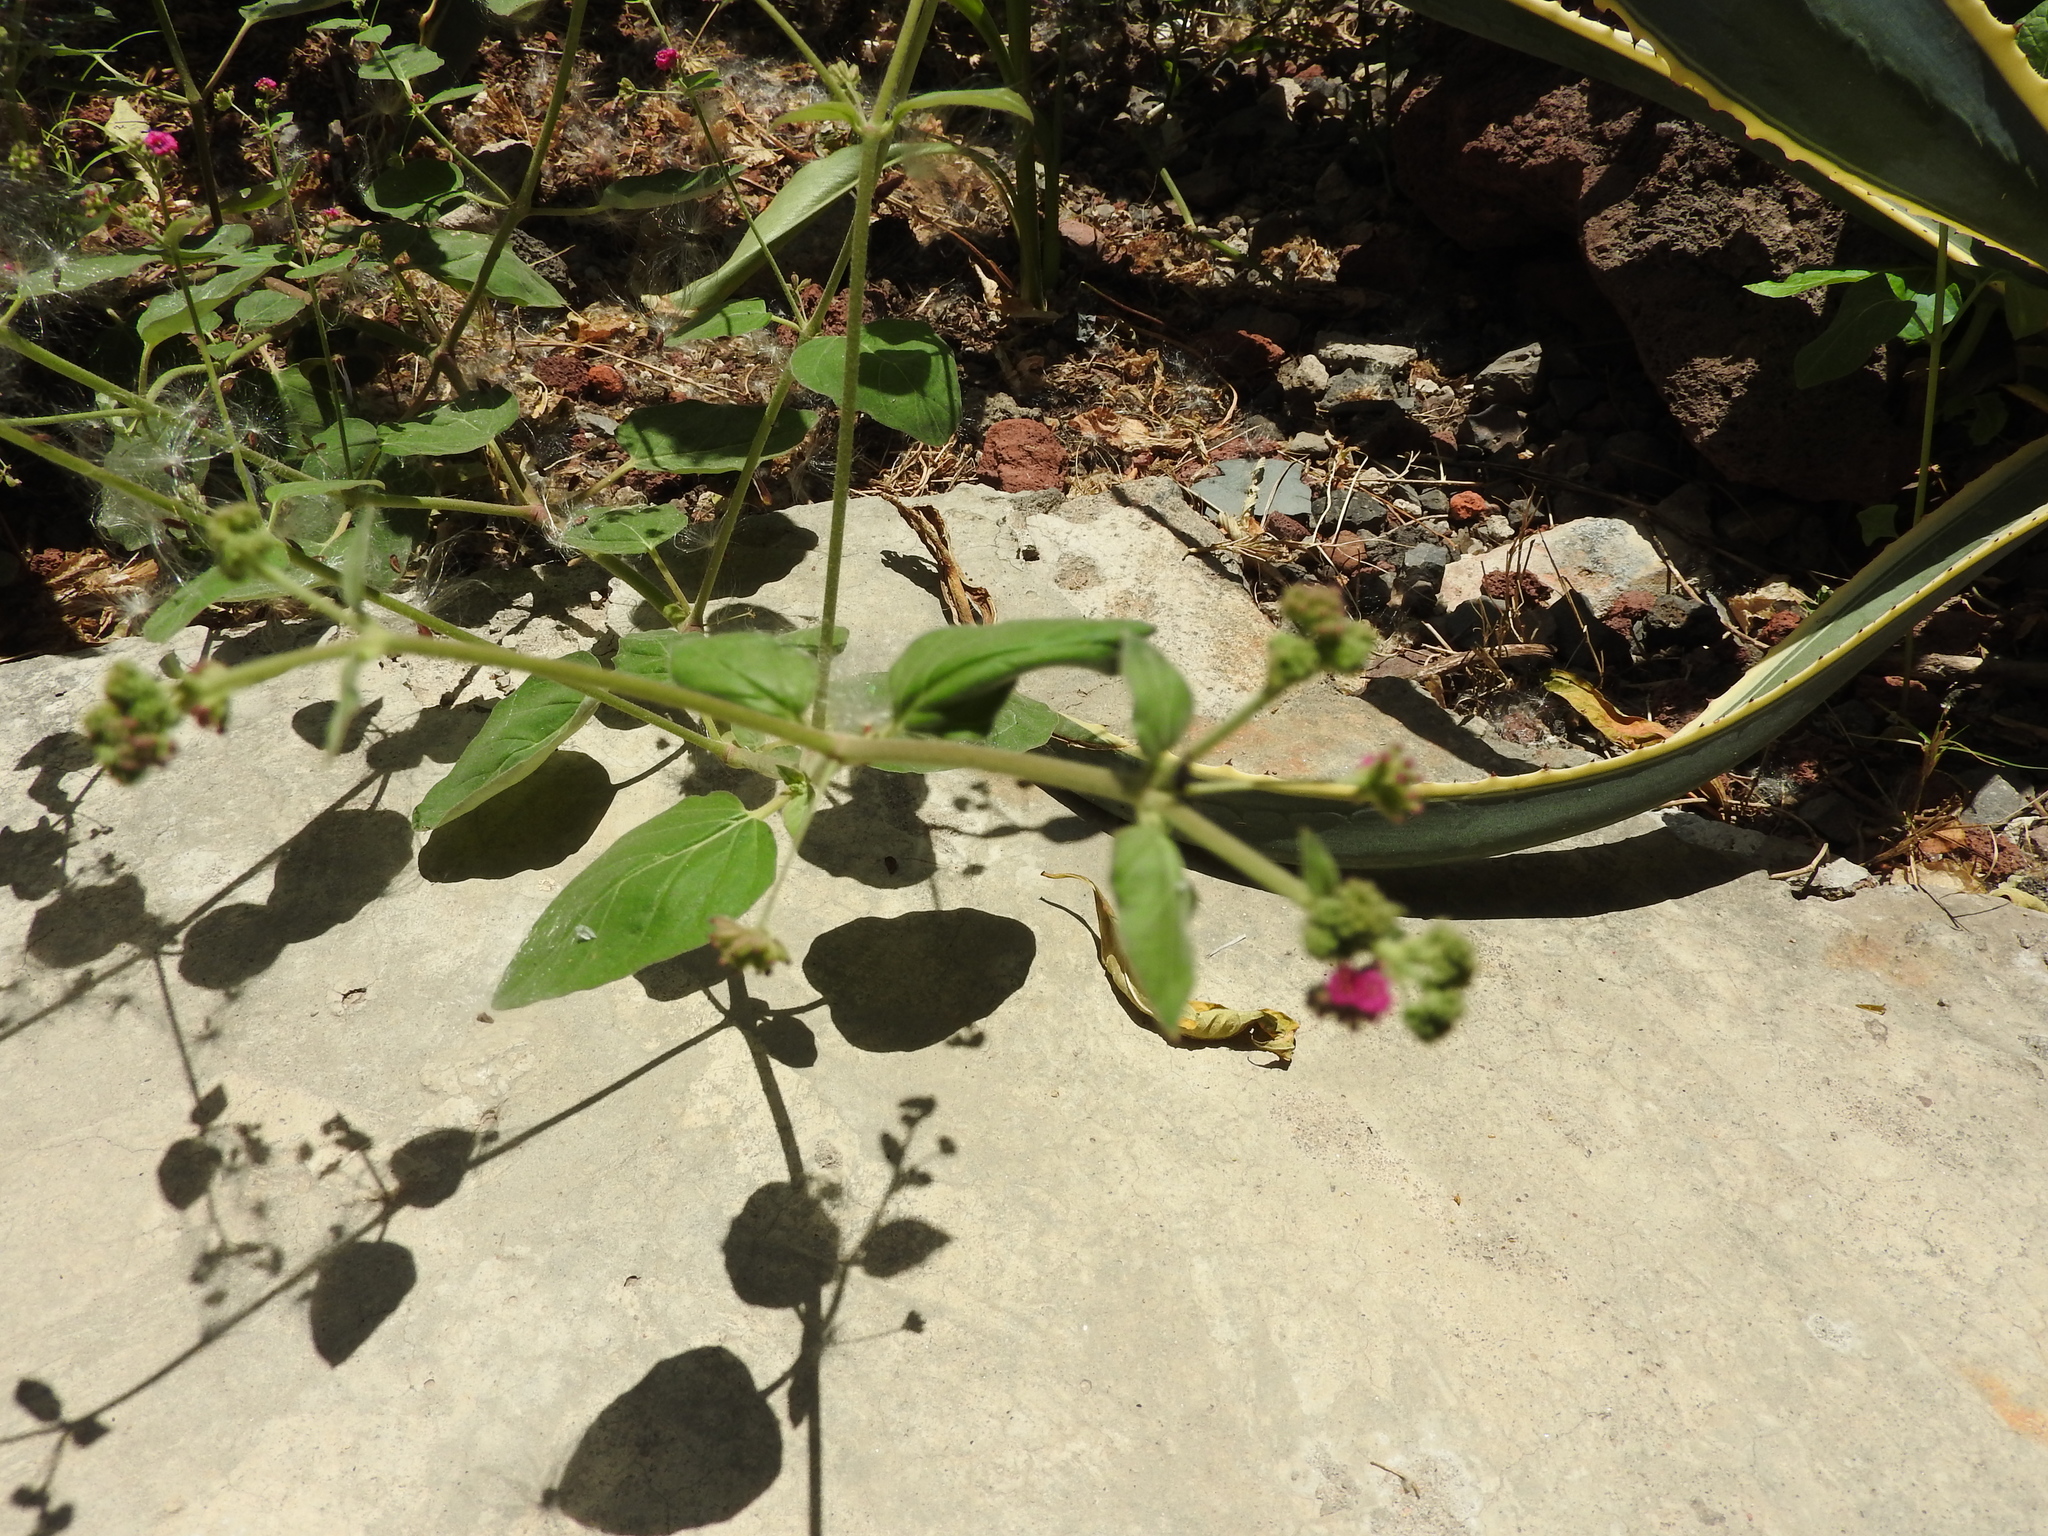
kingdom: Plantae
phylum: Tracheophyta
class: Magnoliopsida
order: Caryophyllales
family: Nyctaginaceae
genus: Boerhavia
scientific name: Boerhavia coccinea
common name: Scarlet spiderling
